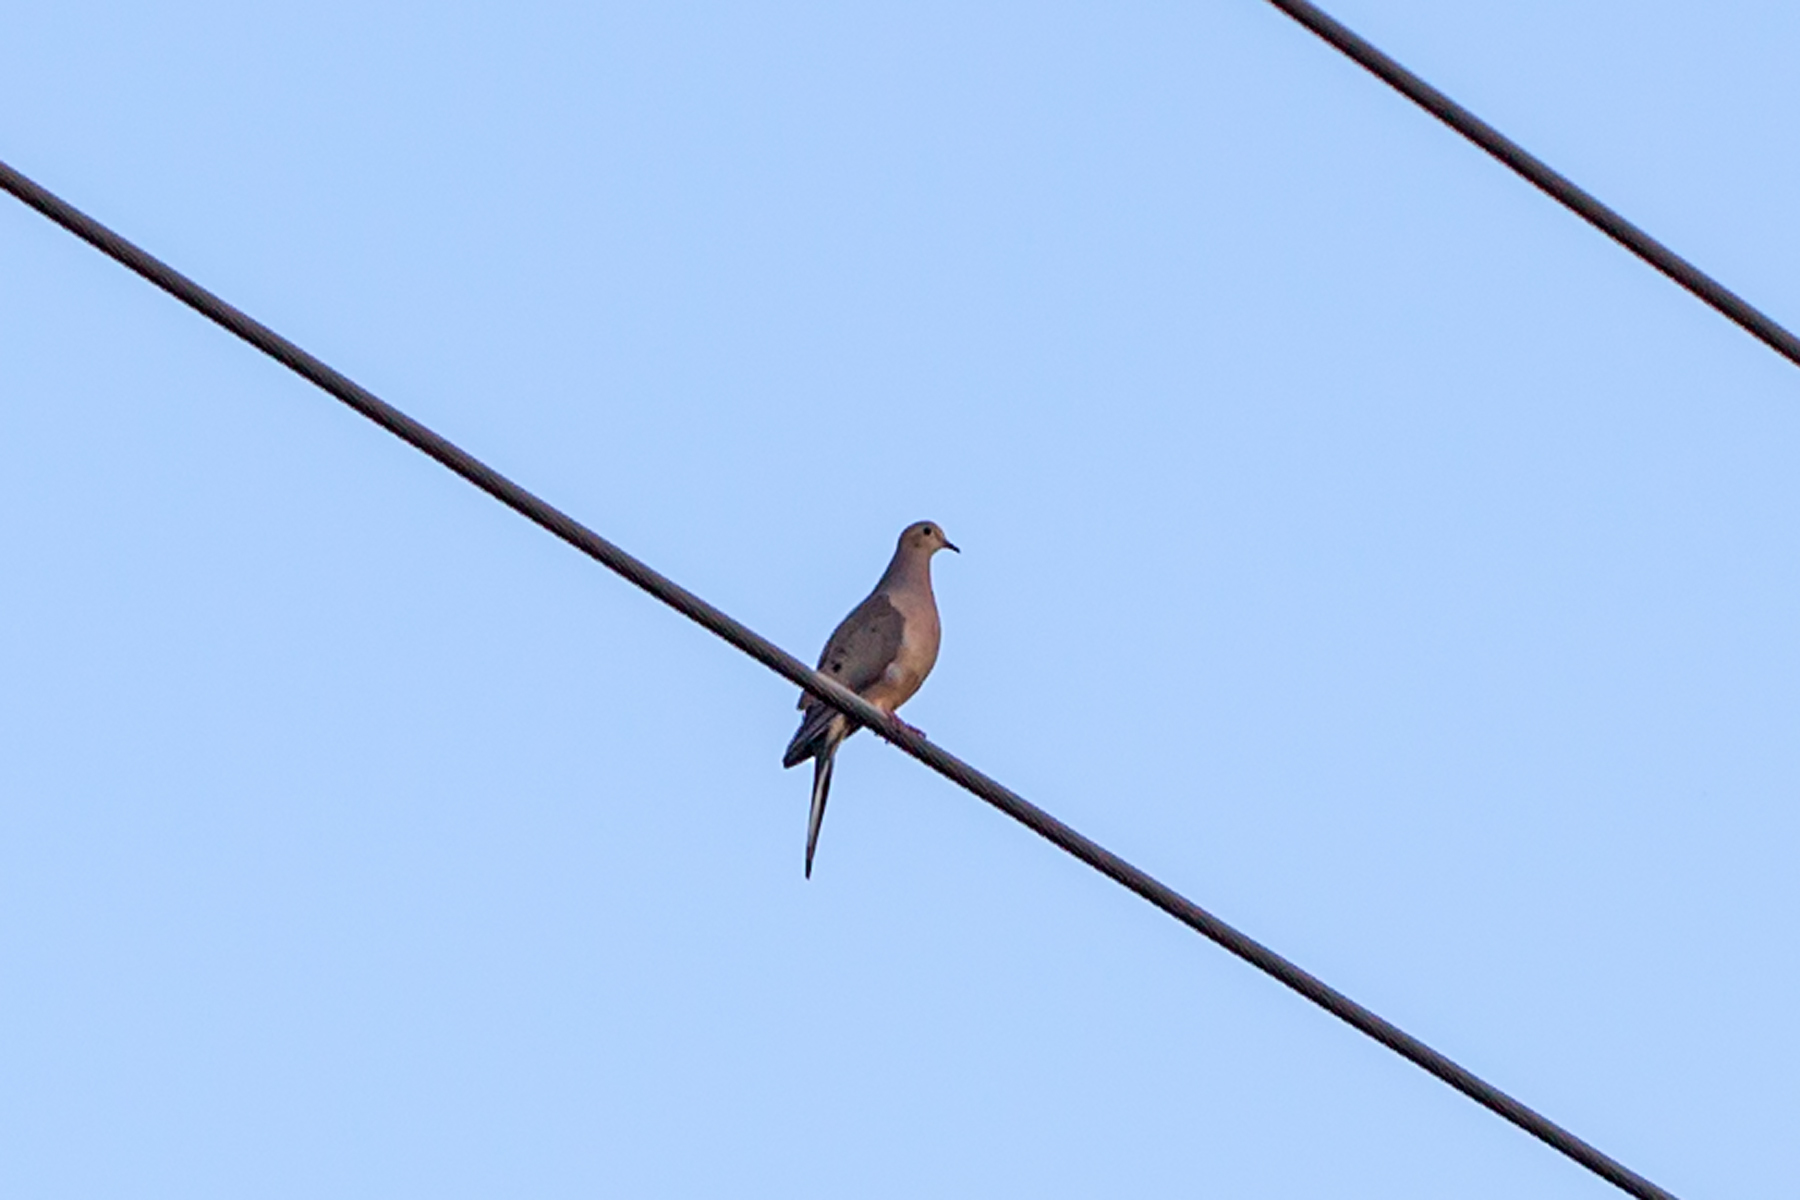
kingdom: Animalia
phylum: Chordata
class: Aves
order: Columbiformes
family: Columbidae
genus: Zenaida
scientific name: Zenaida macroura
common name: Mourning dove
